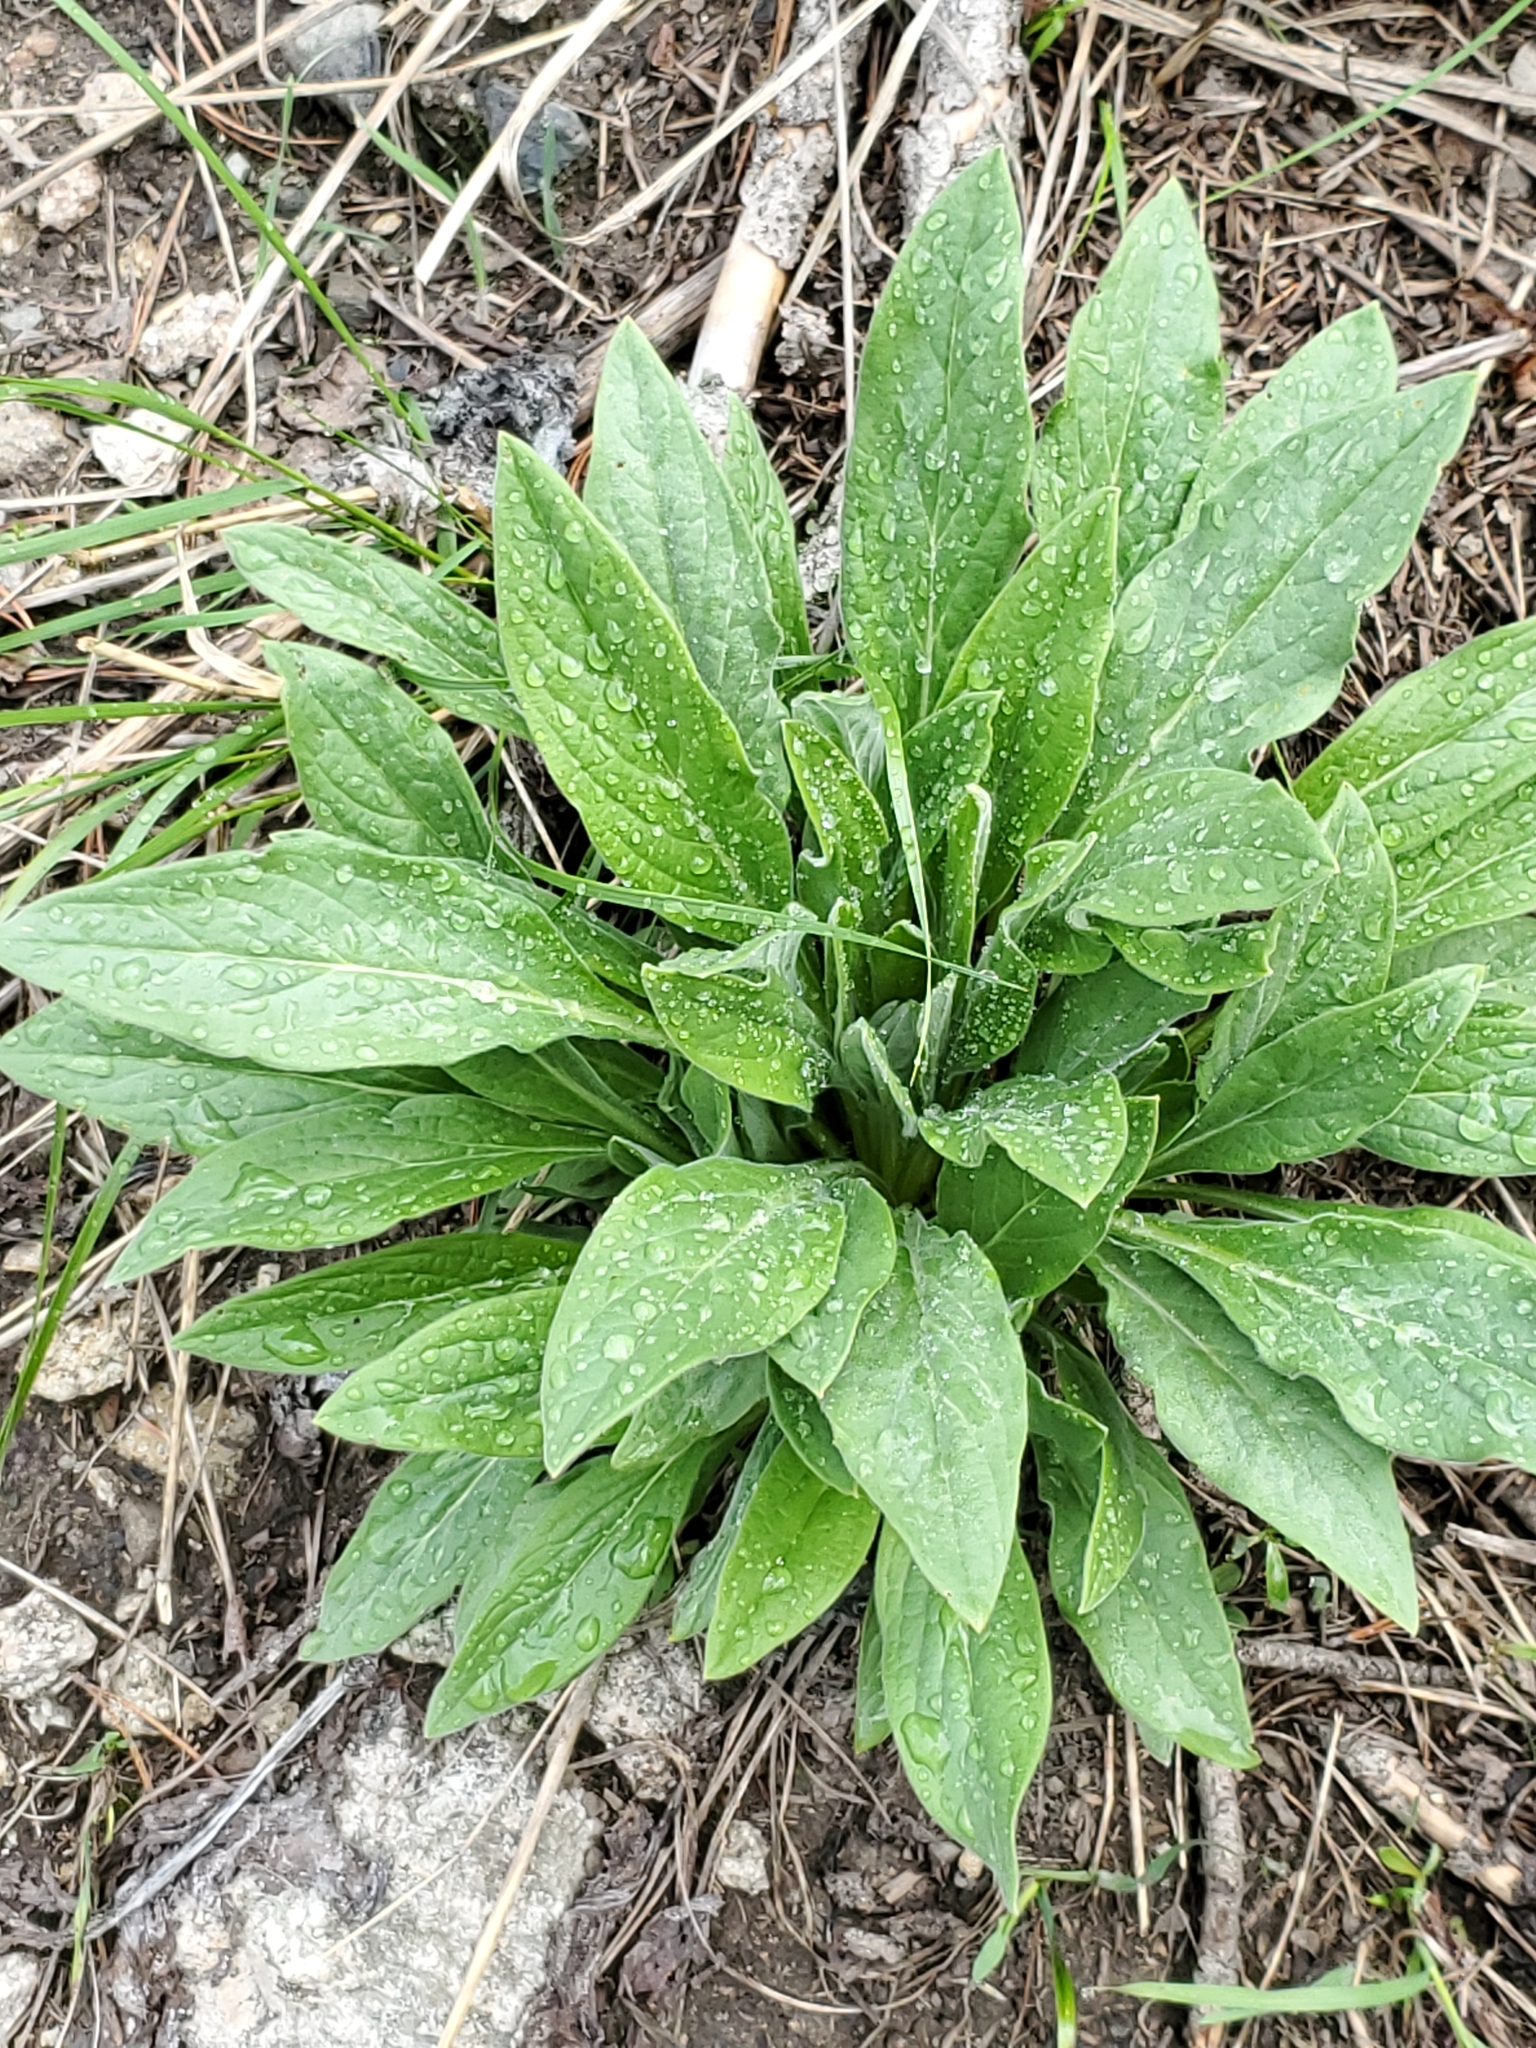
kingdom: Plantae
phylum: Tracheophyta
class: Magnoliopsida
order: Boraginales
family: Boraginaceae
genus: Cynoglossum
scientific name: Cynoglossum officinale
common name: Hound's-tongue
